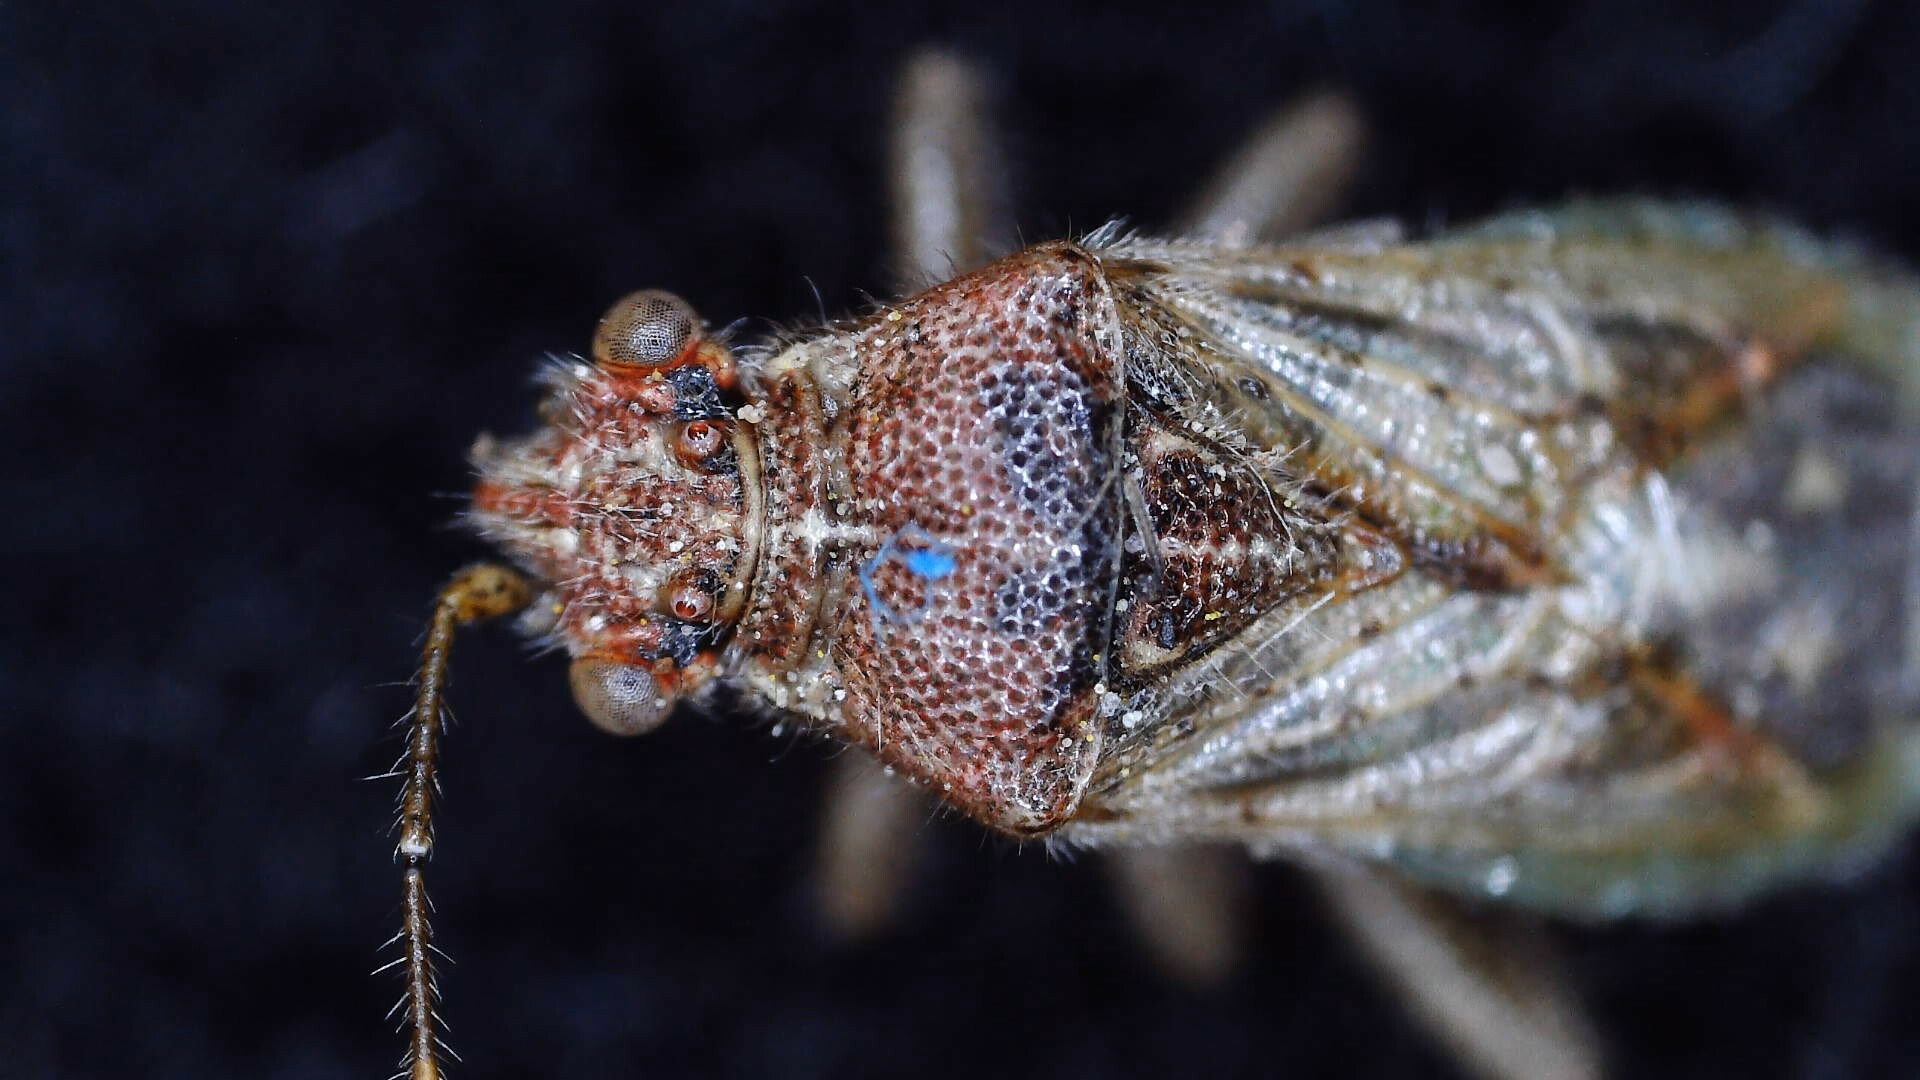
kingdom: Animalia
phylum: Arthropoda
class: Insecta
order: Hemiptera
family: Rhopalidae
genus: Rhopalus
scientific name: Rhopalus parumpunctatus
